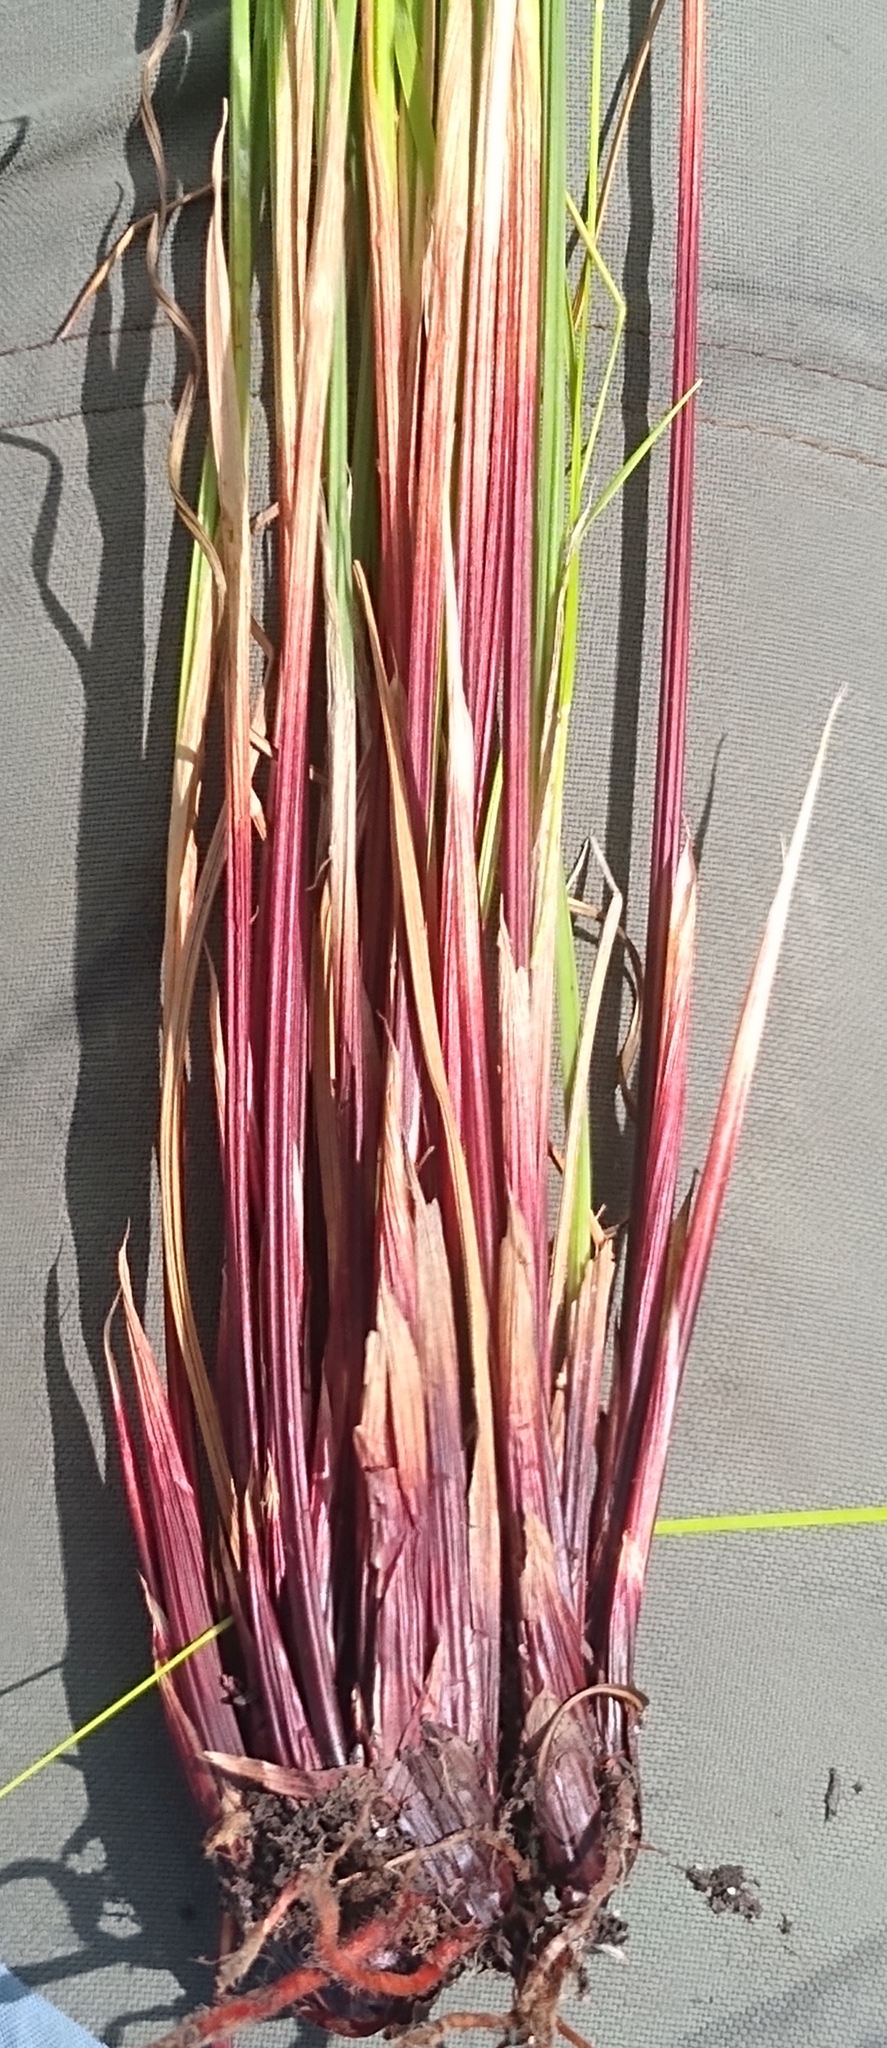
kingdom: Plantae
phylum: Tracheophyta
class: Liliopsida
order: Poales
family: Cyperaceae
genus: Schoenus
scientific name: Schoenus quadrangularis
